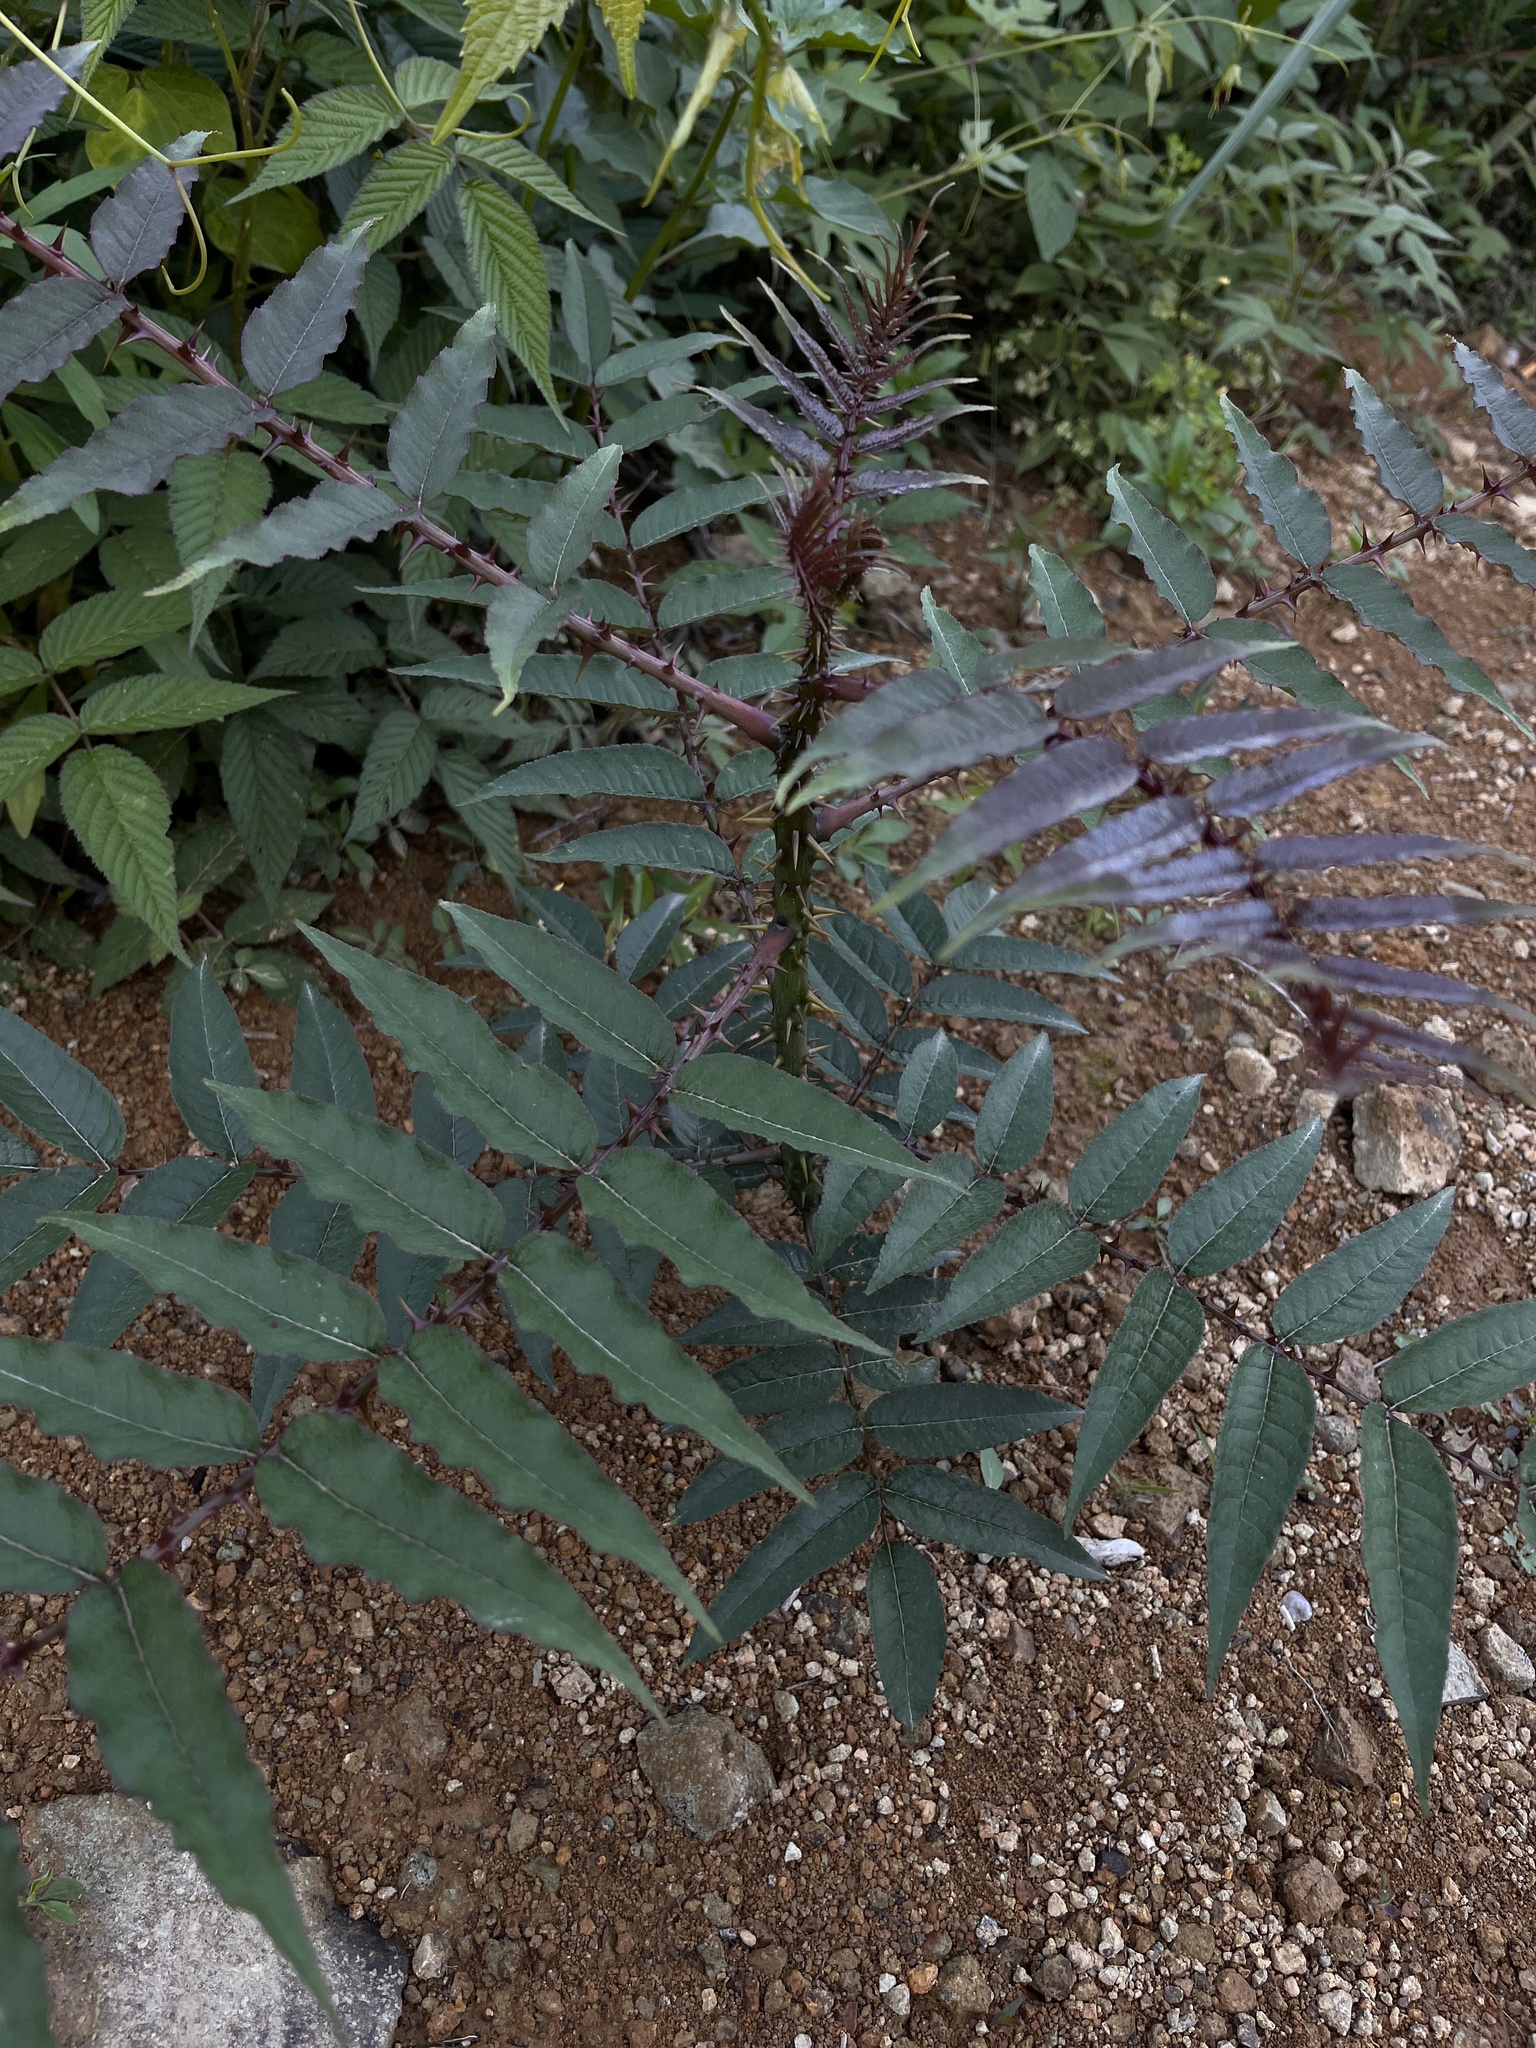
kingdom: Plantae
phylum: Tracheophyta
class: Magnoliopsida
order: Sapindales
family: Rutaceae
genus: Zanthoxylum
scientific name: Zanthoxylum ailanthoides
